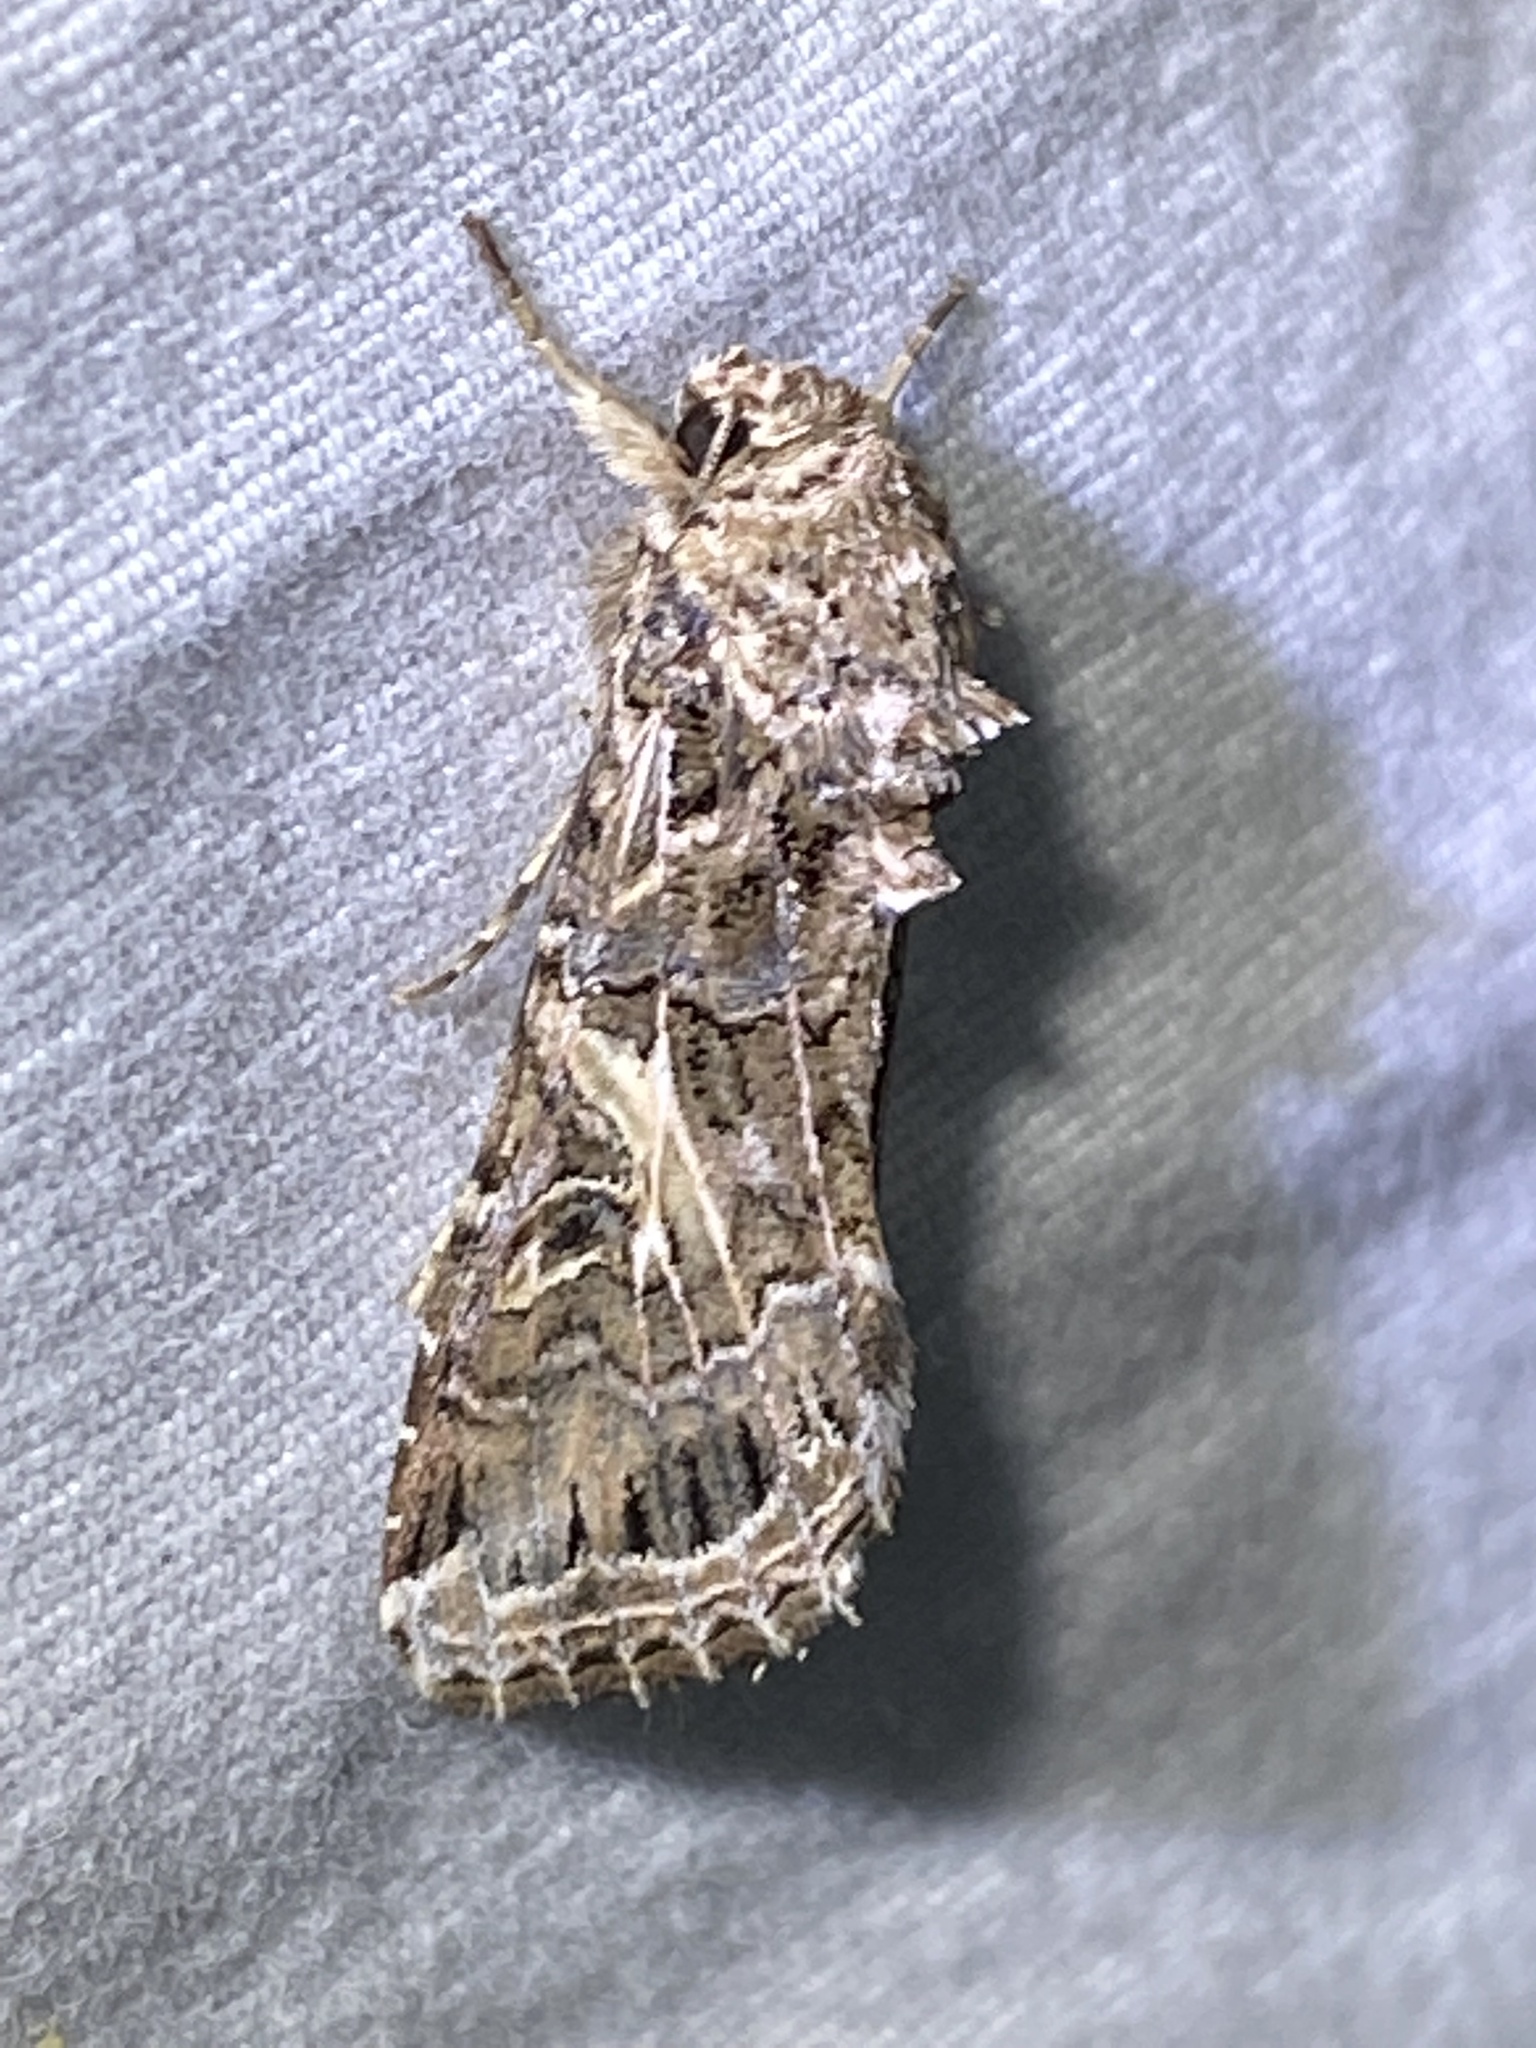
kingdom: Animalia
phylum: Arthropoda
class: Insecta
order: Lepidoptera
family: Noctuidae
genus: Spodoptera
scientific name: Spodoptera ornithogalli
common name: Yellow-striped armyworm
